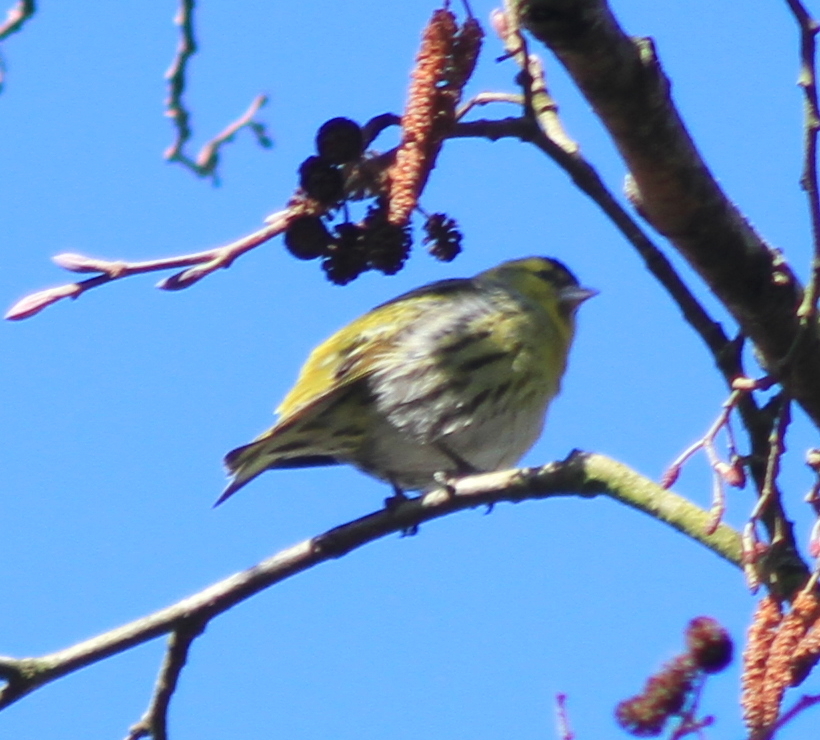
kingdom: Animalia
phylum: Chordata
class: Aves
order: Passeriformes
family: Fringillidae
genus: Spinus
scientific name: Spinus spinus
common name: Eurasian siskin
